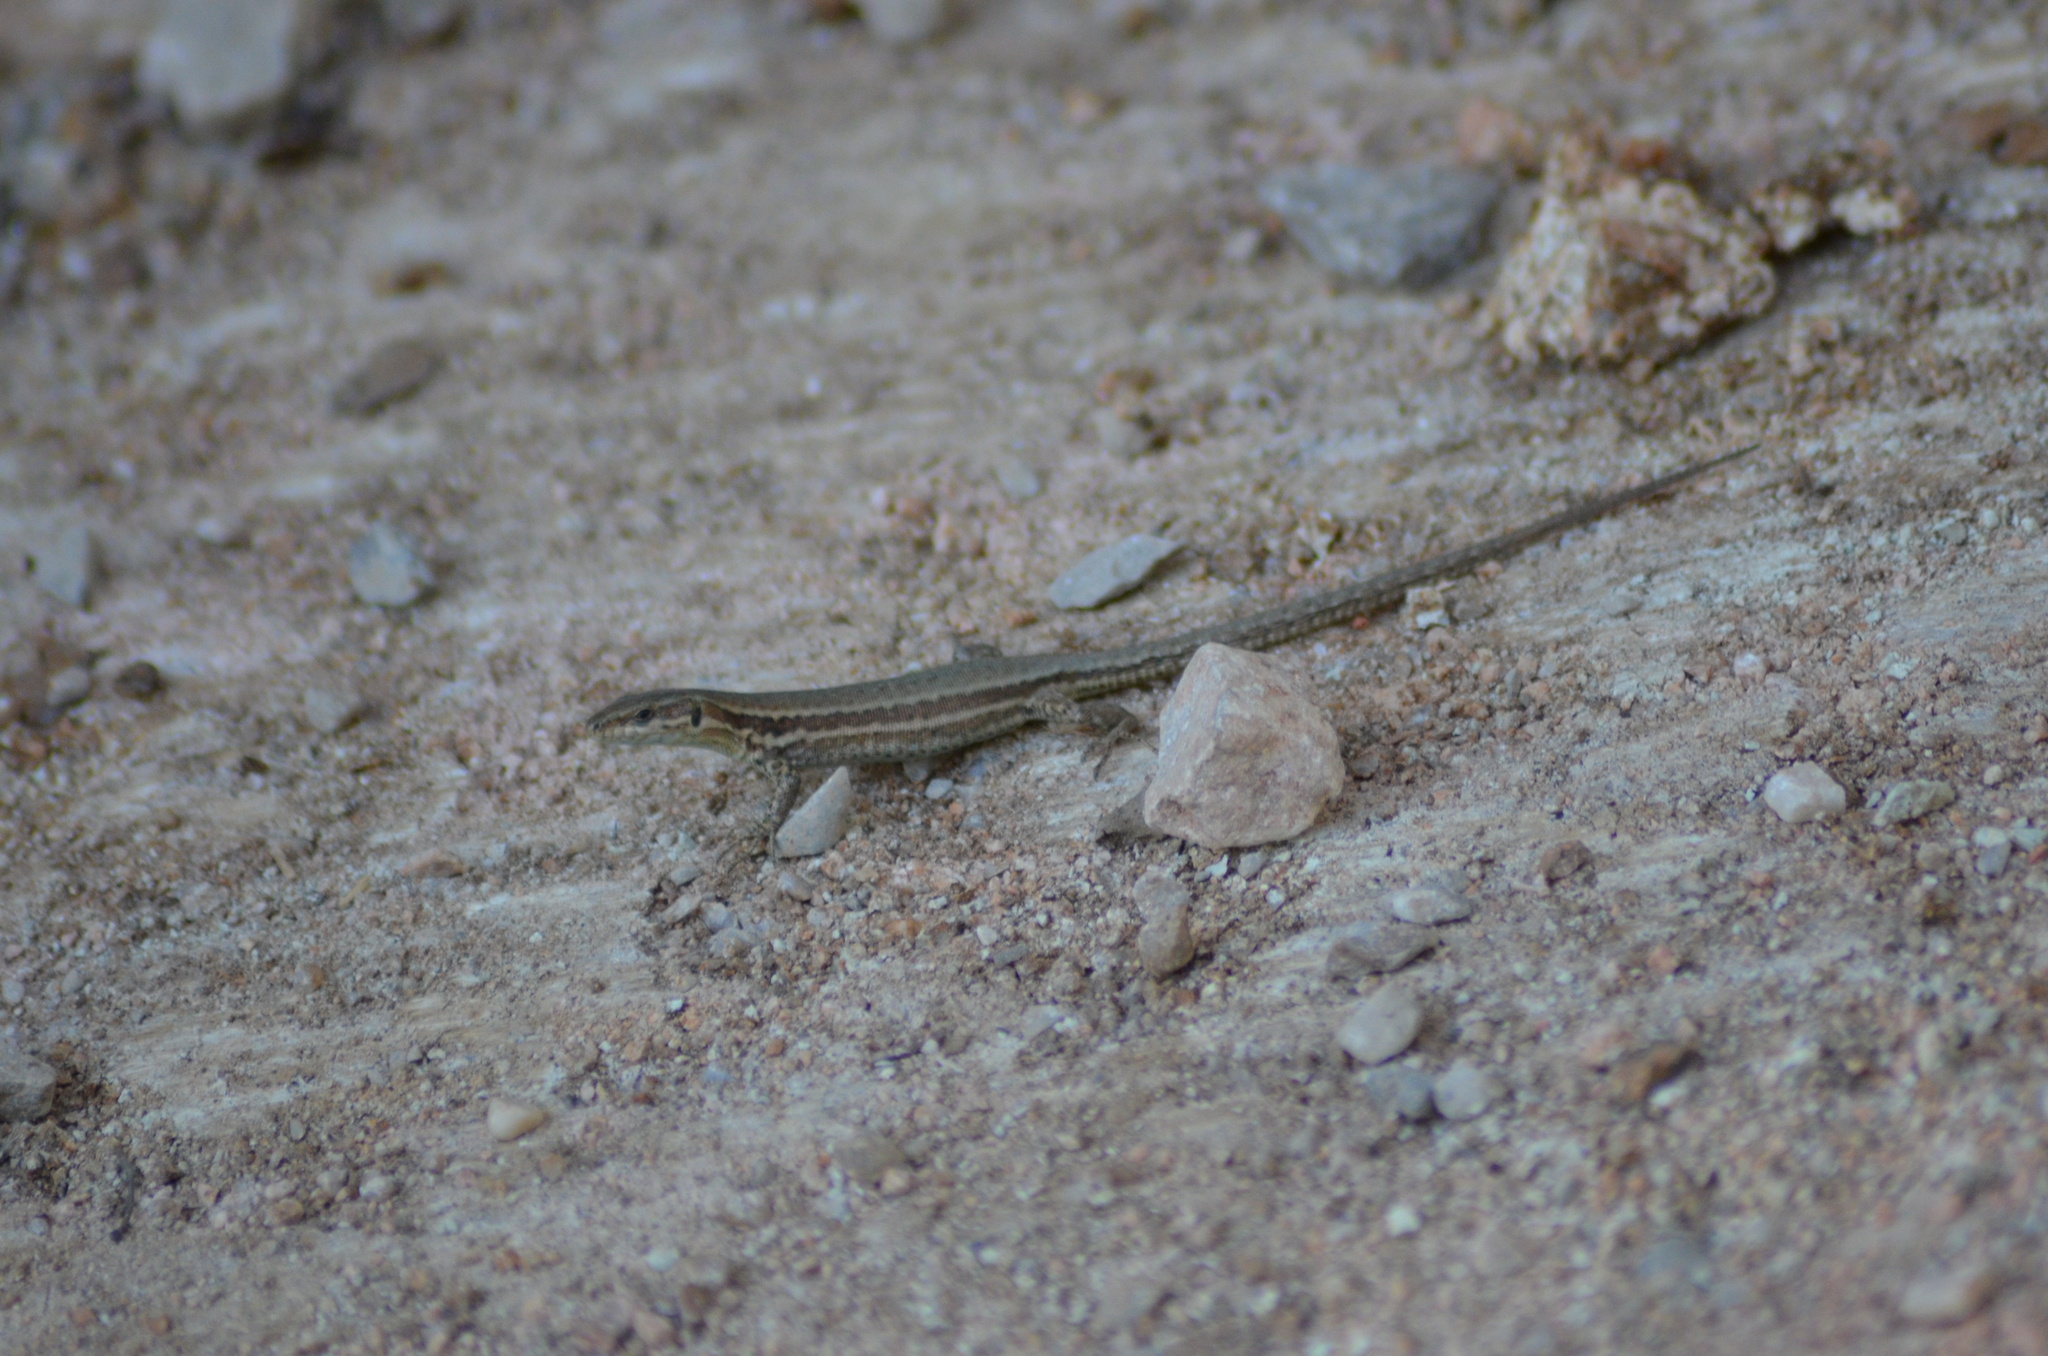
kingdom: Animalia
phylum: Chordata
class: Squamata
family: Lacertidae
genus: Podarcis
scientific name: Podarcis liolepis
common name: Catalonian wall lizard
